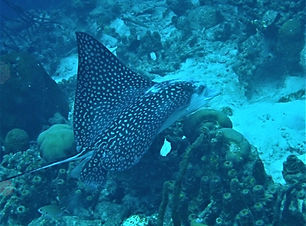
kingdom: Animalia
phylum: Chordata
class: Elasmobranchii
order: Myliobatiformes
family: Myliobatidae
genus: Aetobatus
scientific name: Aetobatus narinari
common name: Spotted eagle ray
